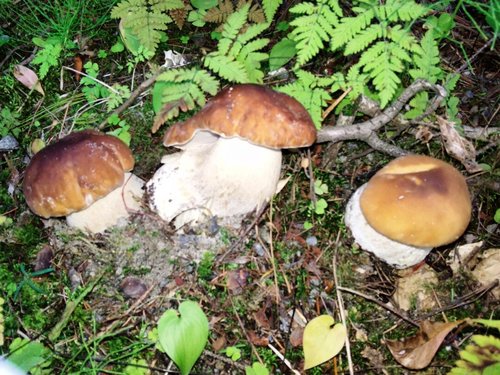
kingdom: Fungi
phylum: Basidiomycota
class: Agaricomycetes
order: Boletales
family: Boletaceae
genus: Boletus
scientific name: Boletus edulis
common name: Cep
